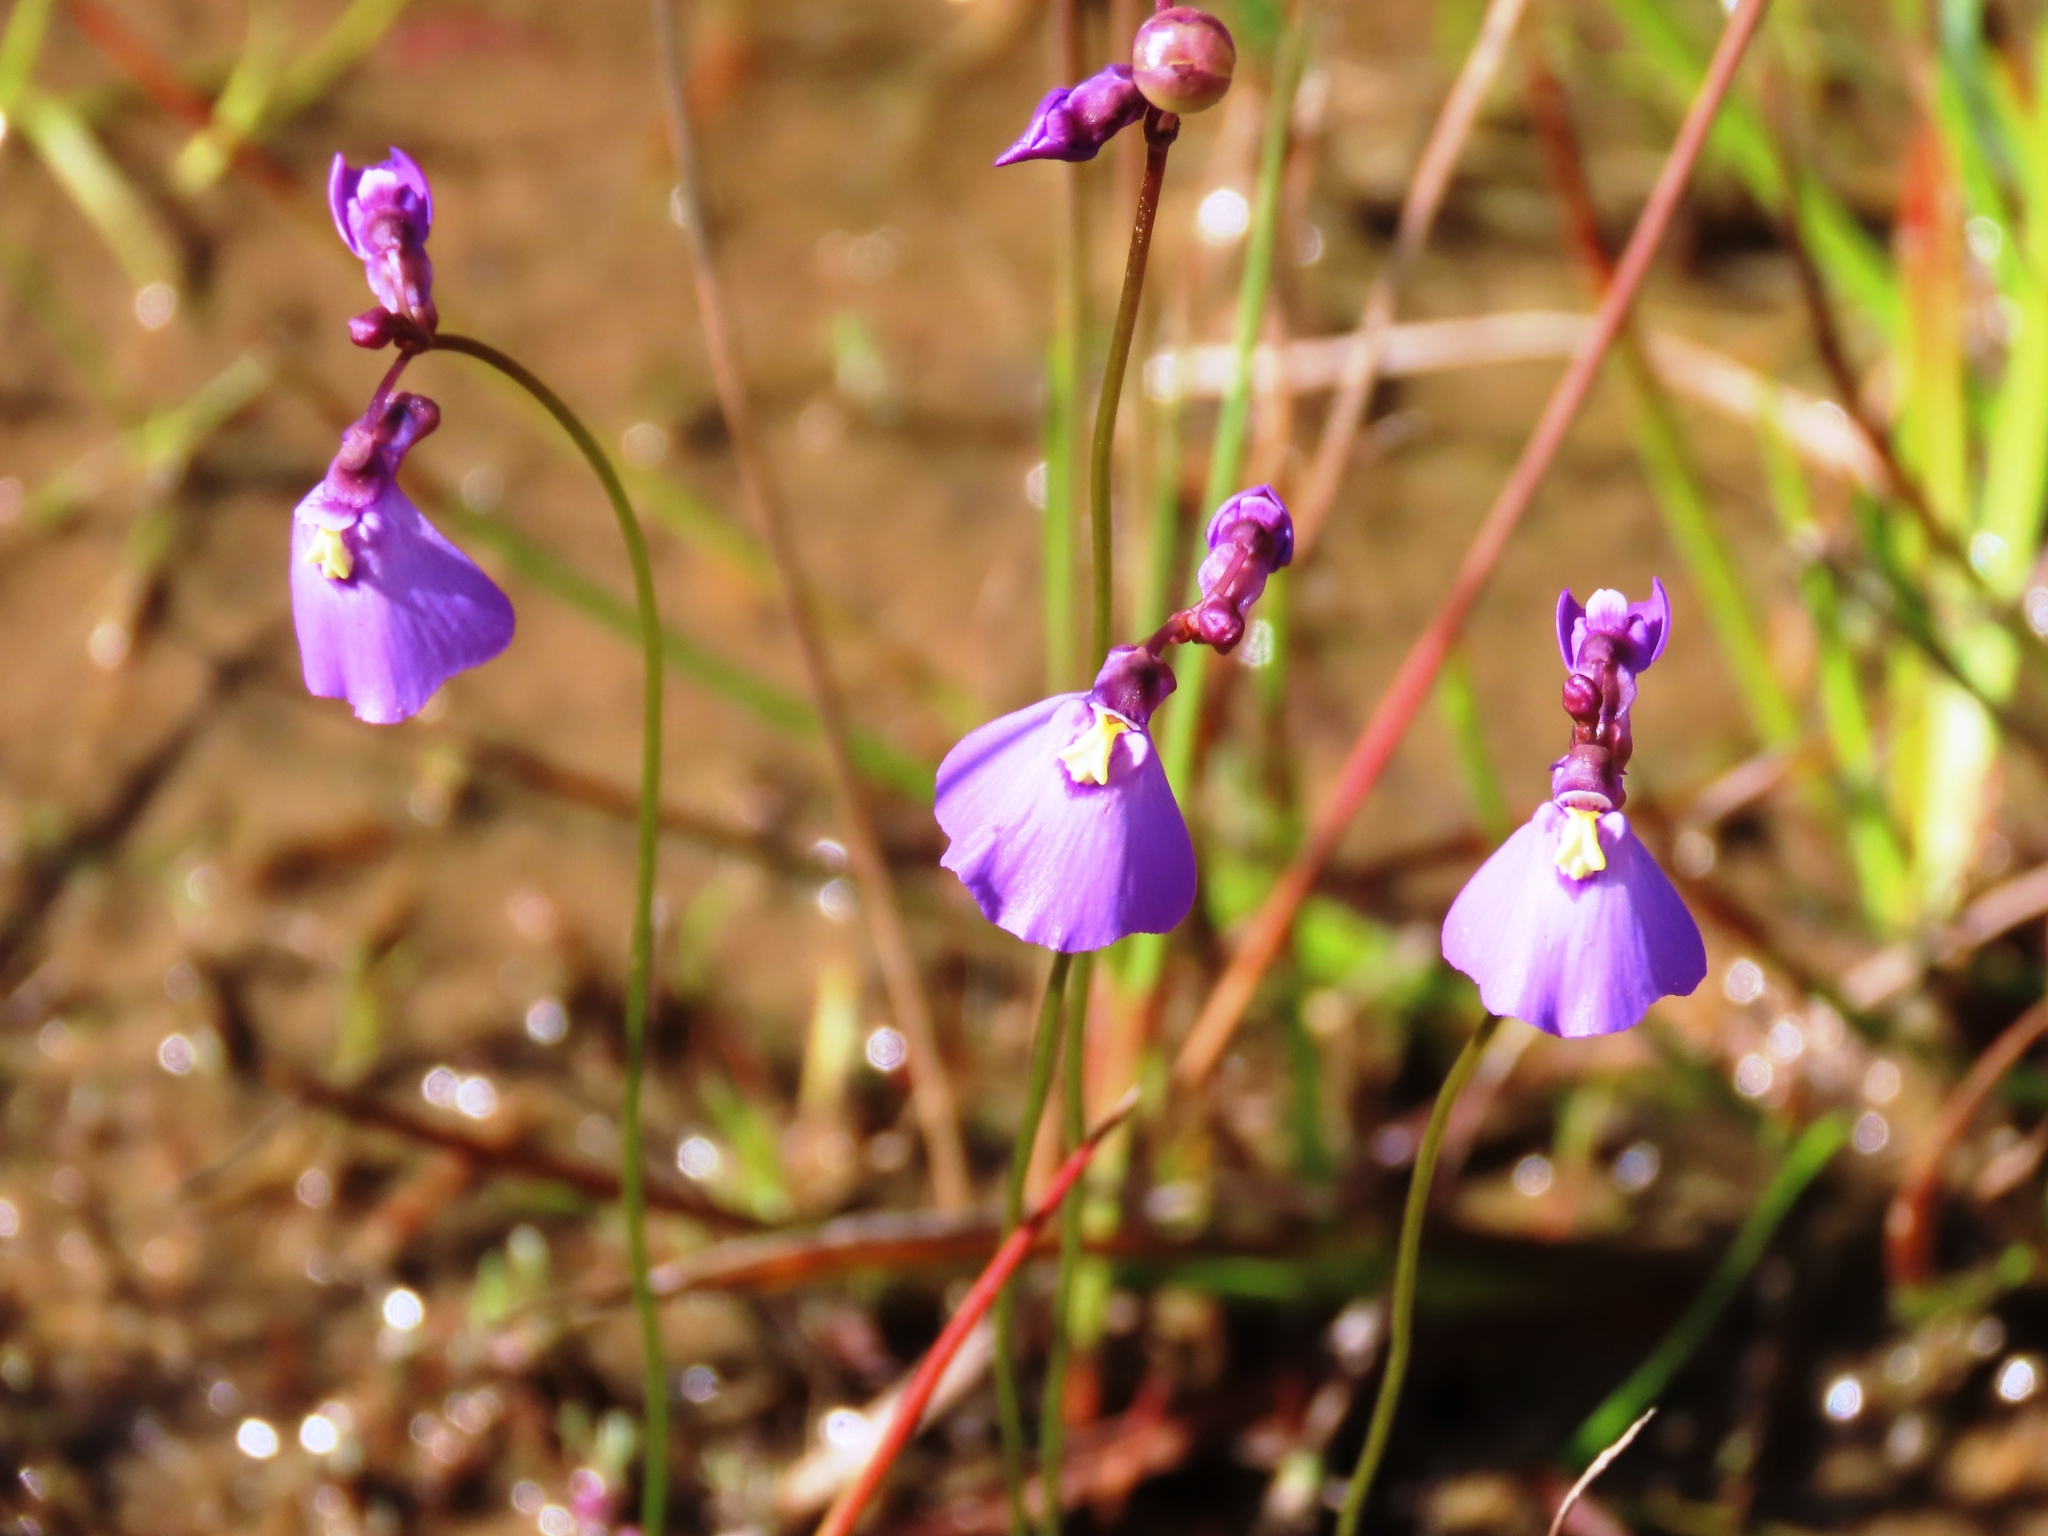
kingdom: Plantae
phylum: Tracheophyta
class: Magnoliopsida
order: Lamiales
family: Lentibulariaceae
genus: Utricularia
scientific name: Utricularia dichotoma
